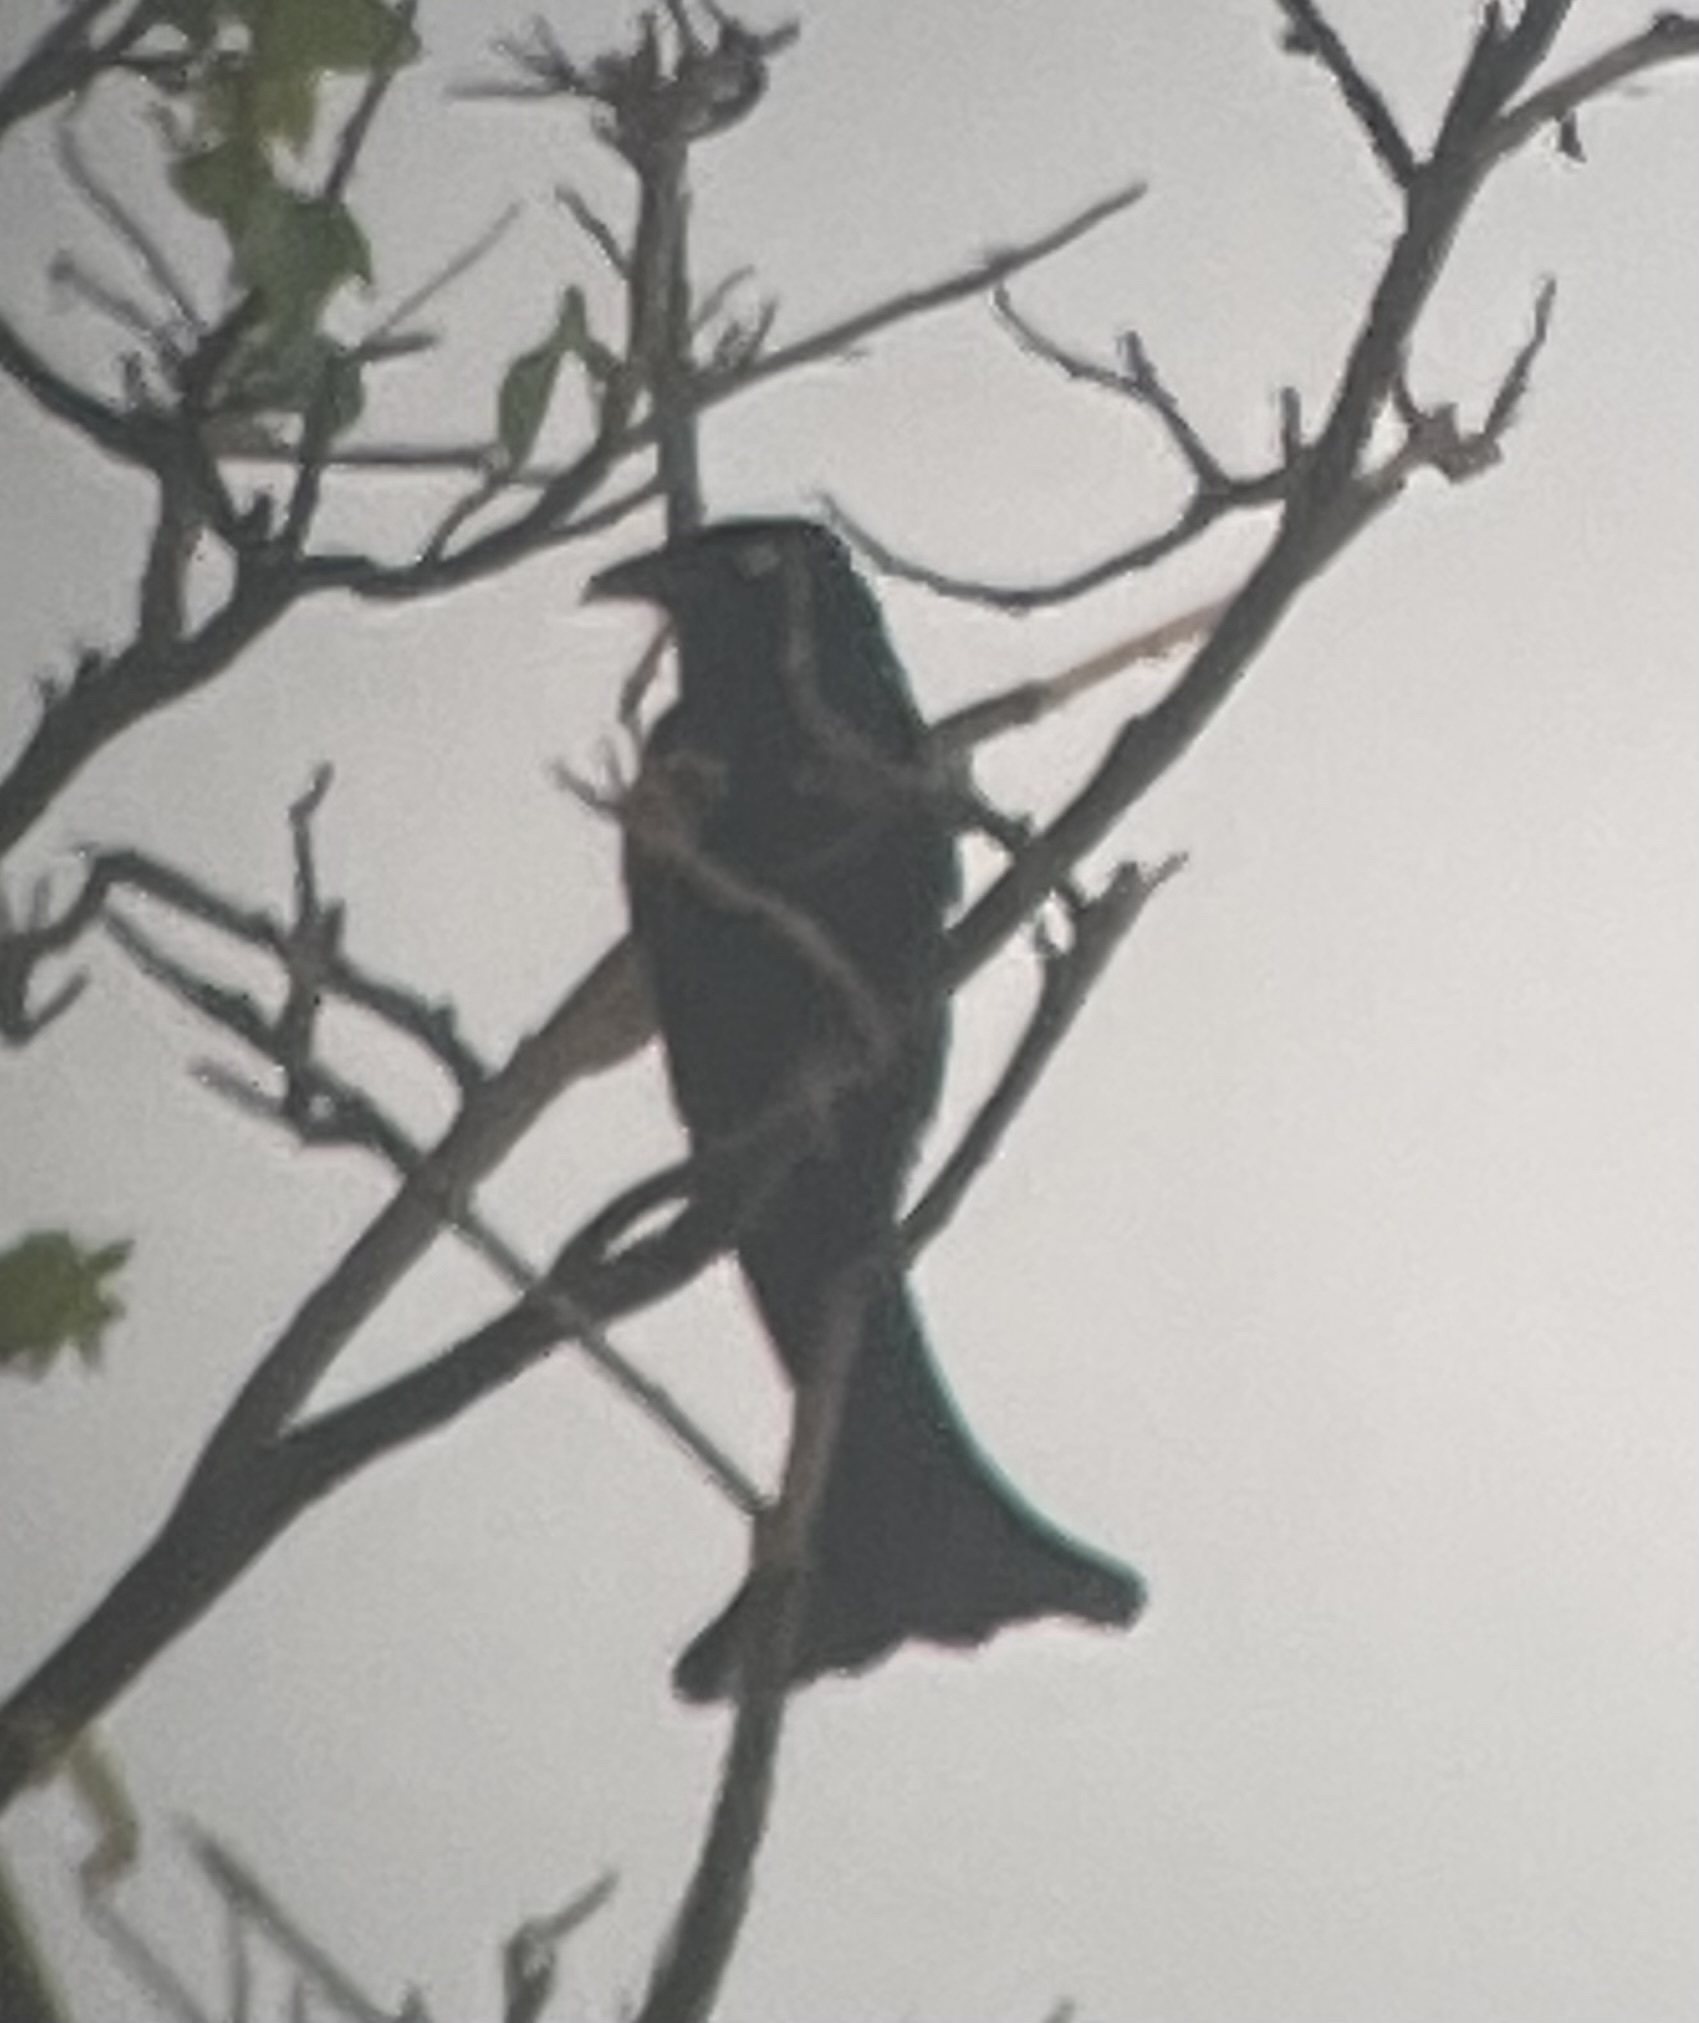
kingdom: Animalia
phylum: Chordata
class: Aves
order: Passeriformes
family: Dicruridae
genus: Dicrurus
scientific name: Dicrurus hottentottus
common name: Hair-crested drongo
